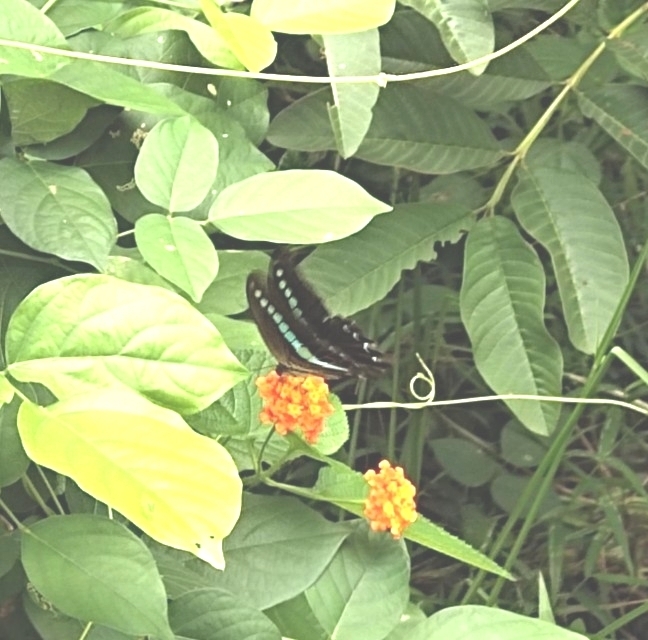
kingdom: Animalia
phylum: Arthropoda
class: Insecta
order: Lepidoptera
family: Papilionidae
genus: Graphium
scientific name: Graphium
